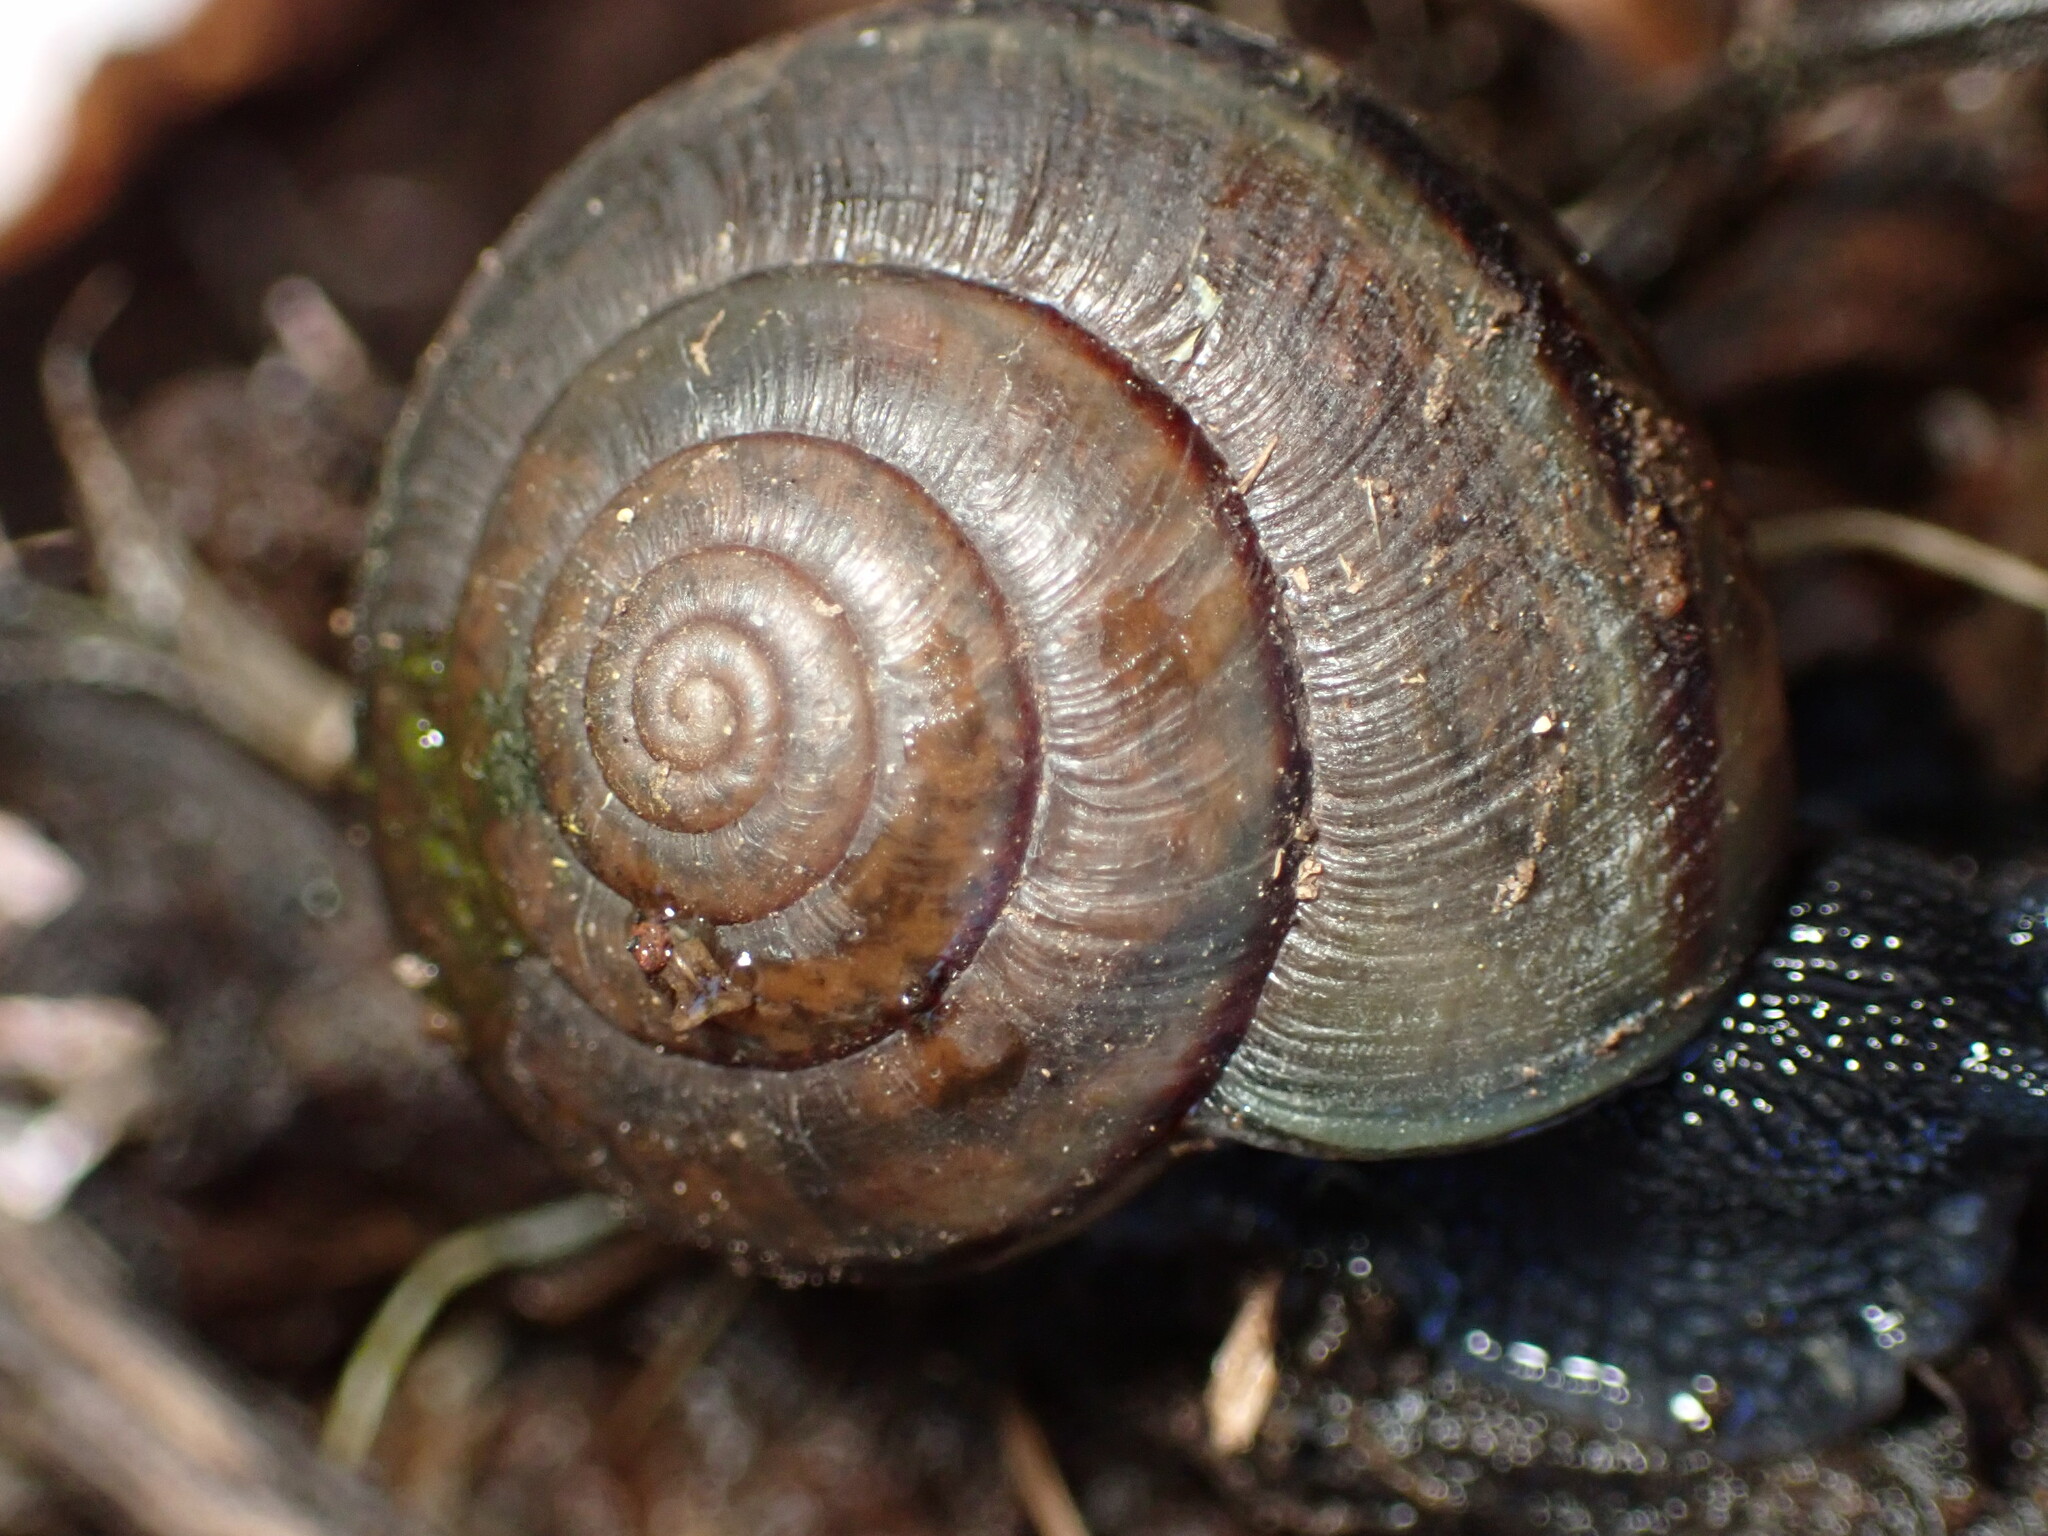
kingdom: Animalia
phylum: Mollusca
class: Gastropoda
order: Stylommatophora
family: Xanthonychidae
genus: Helminthoglypta
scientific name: Helminthoglypta traskii
